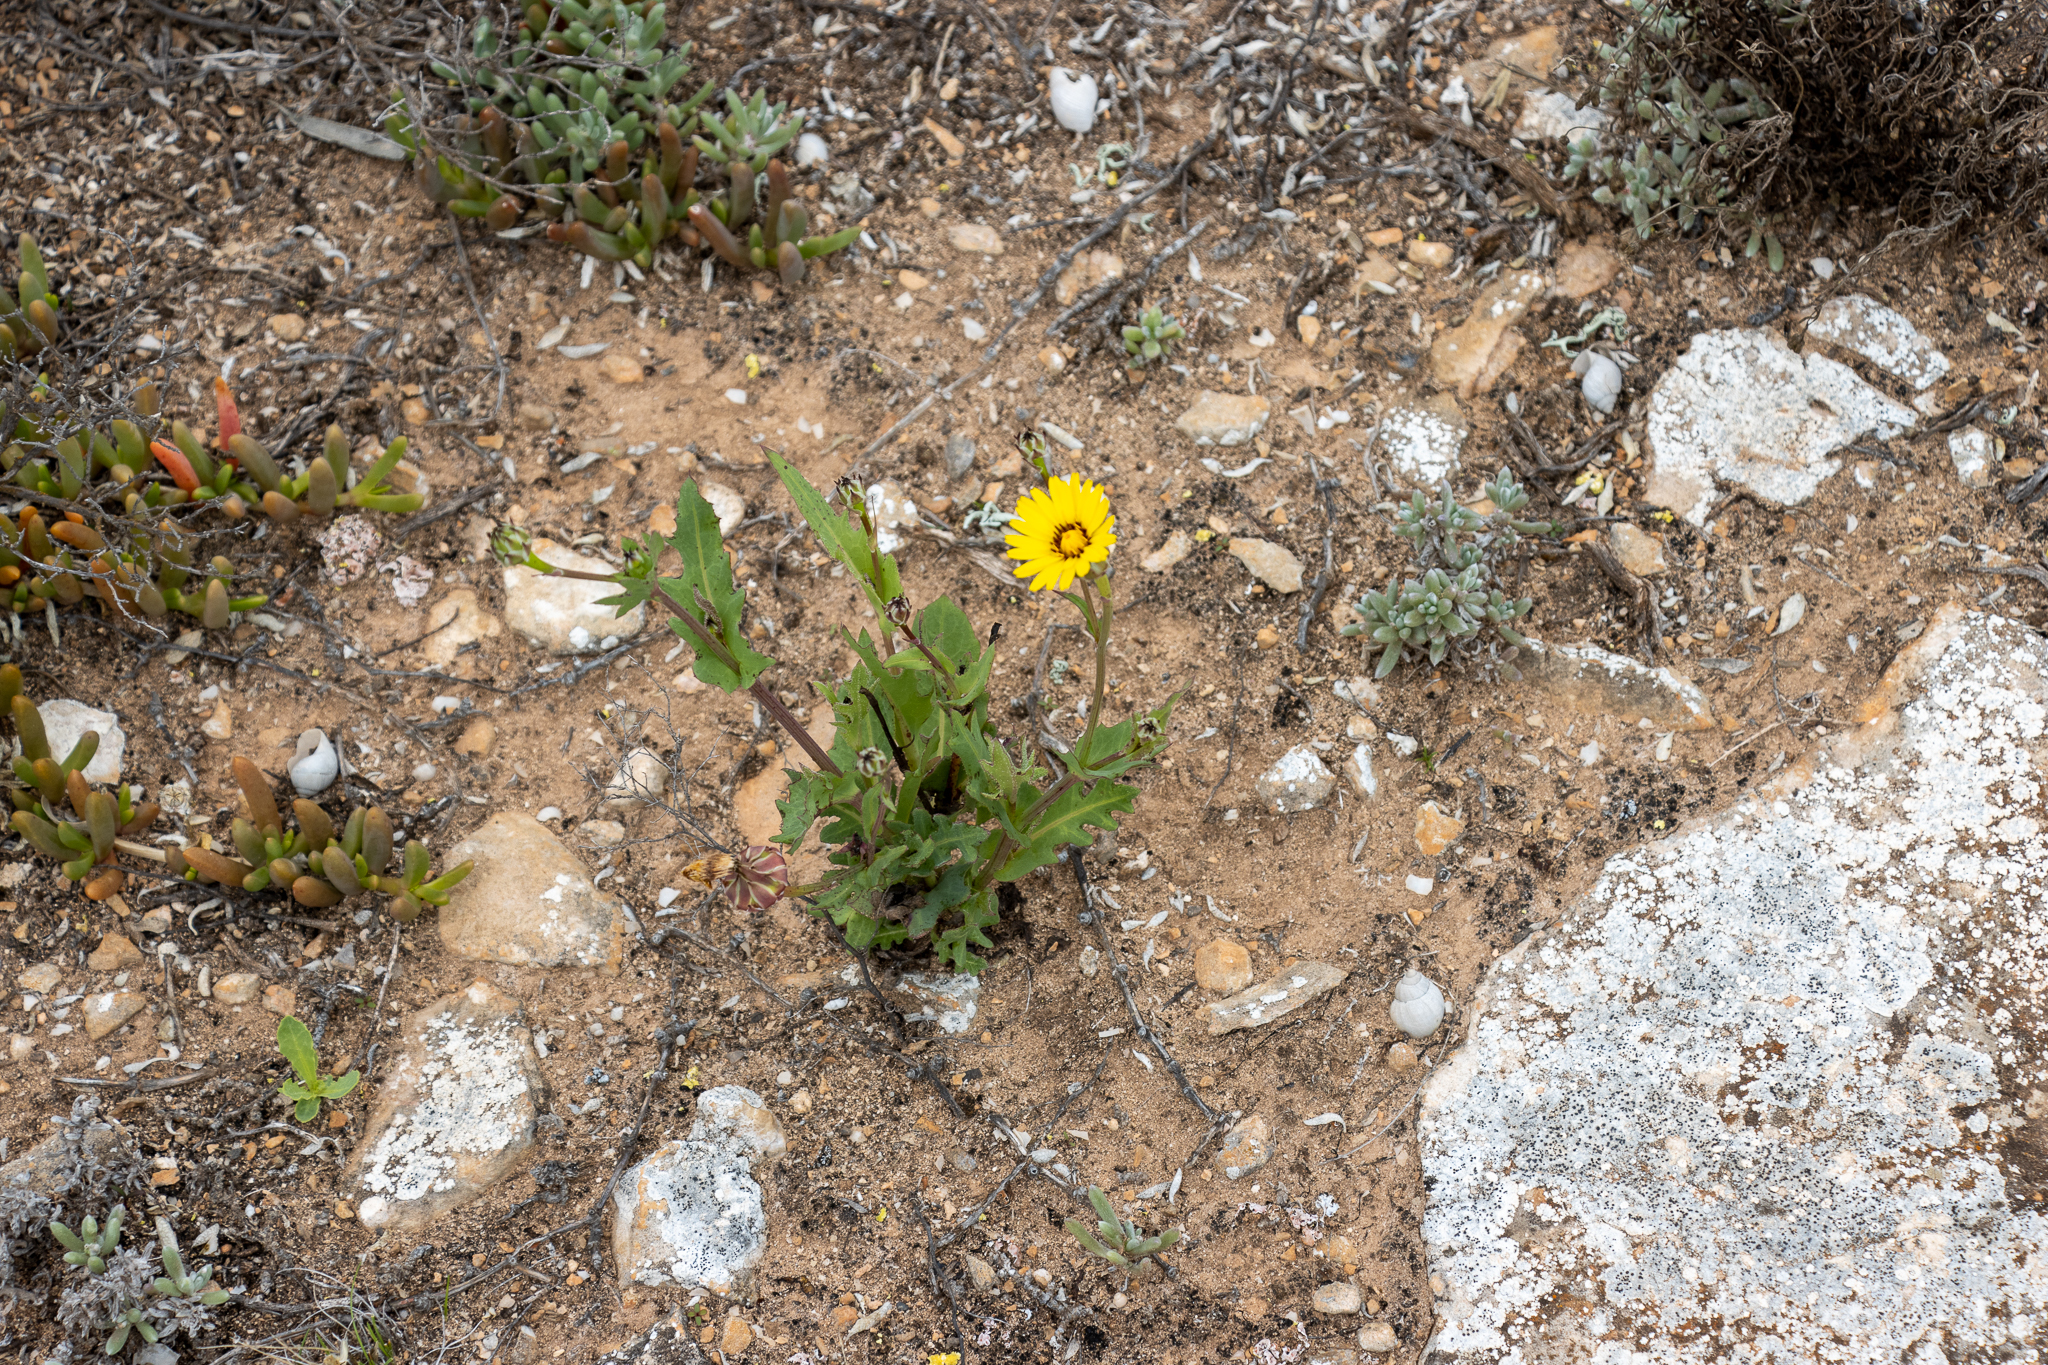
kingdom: Plantae
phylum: Tracheophyta
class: Magnoliopsida
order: Asterales
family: Asteraceae
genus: Reichardia
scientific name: Reichardia tingitana
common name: Reichardia
